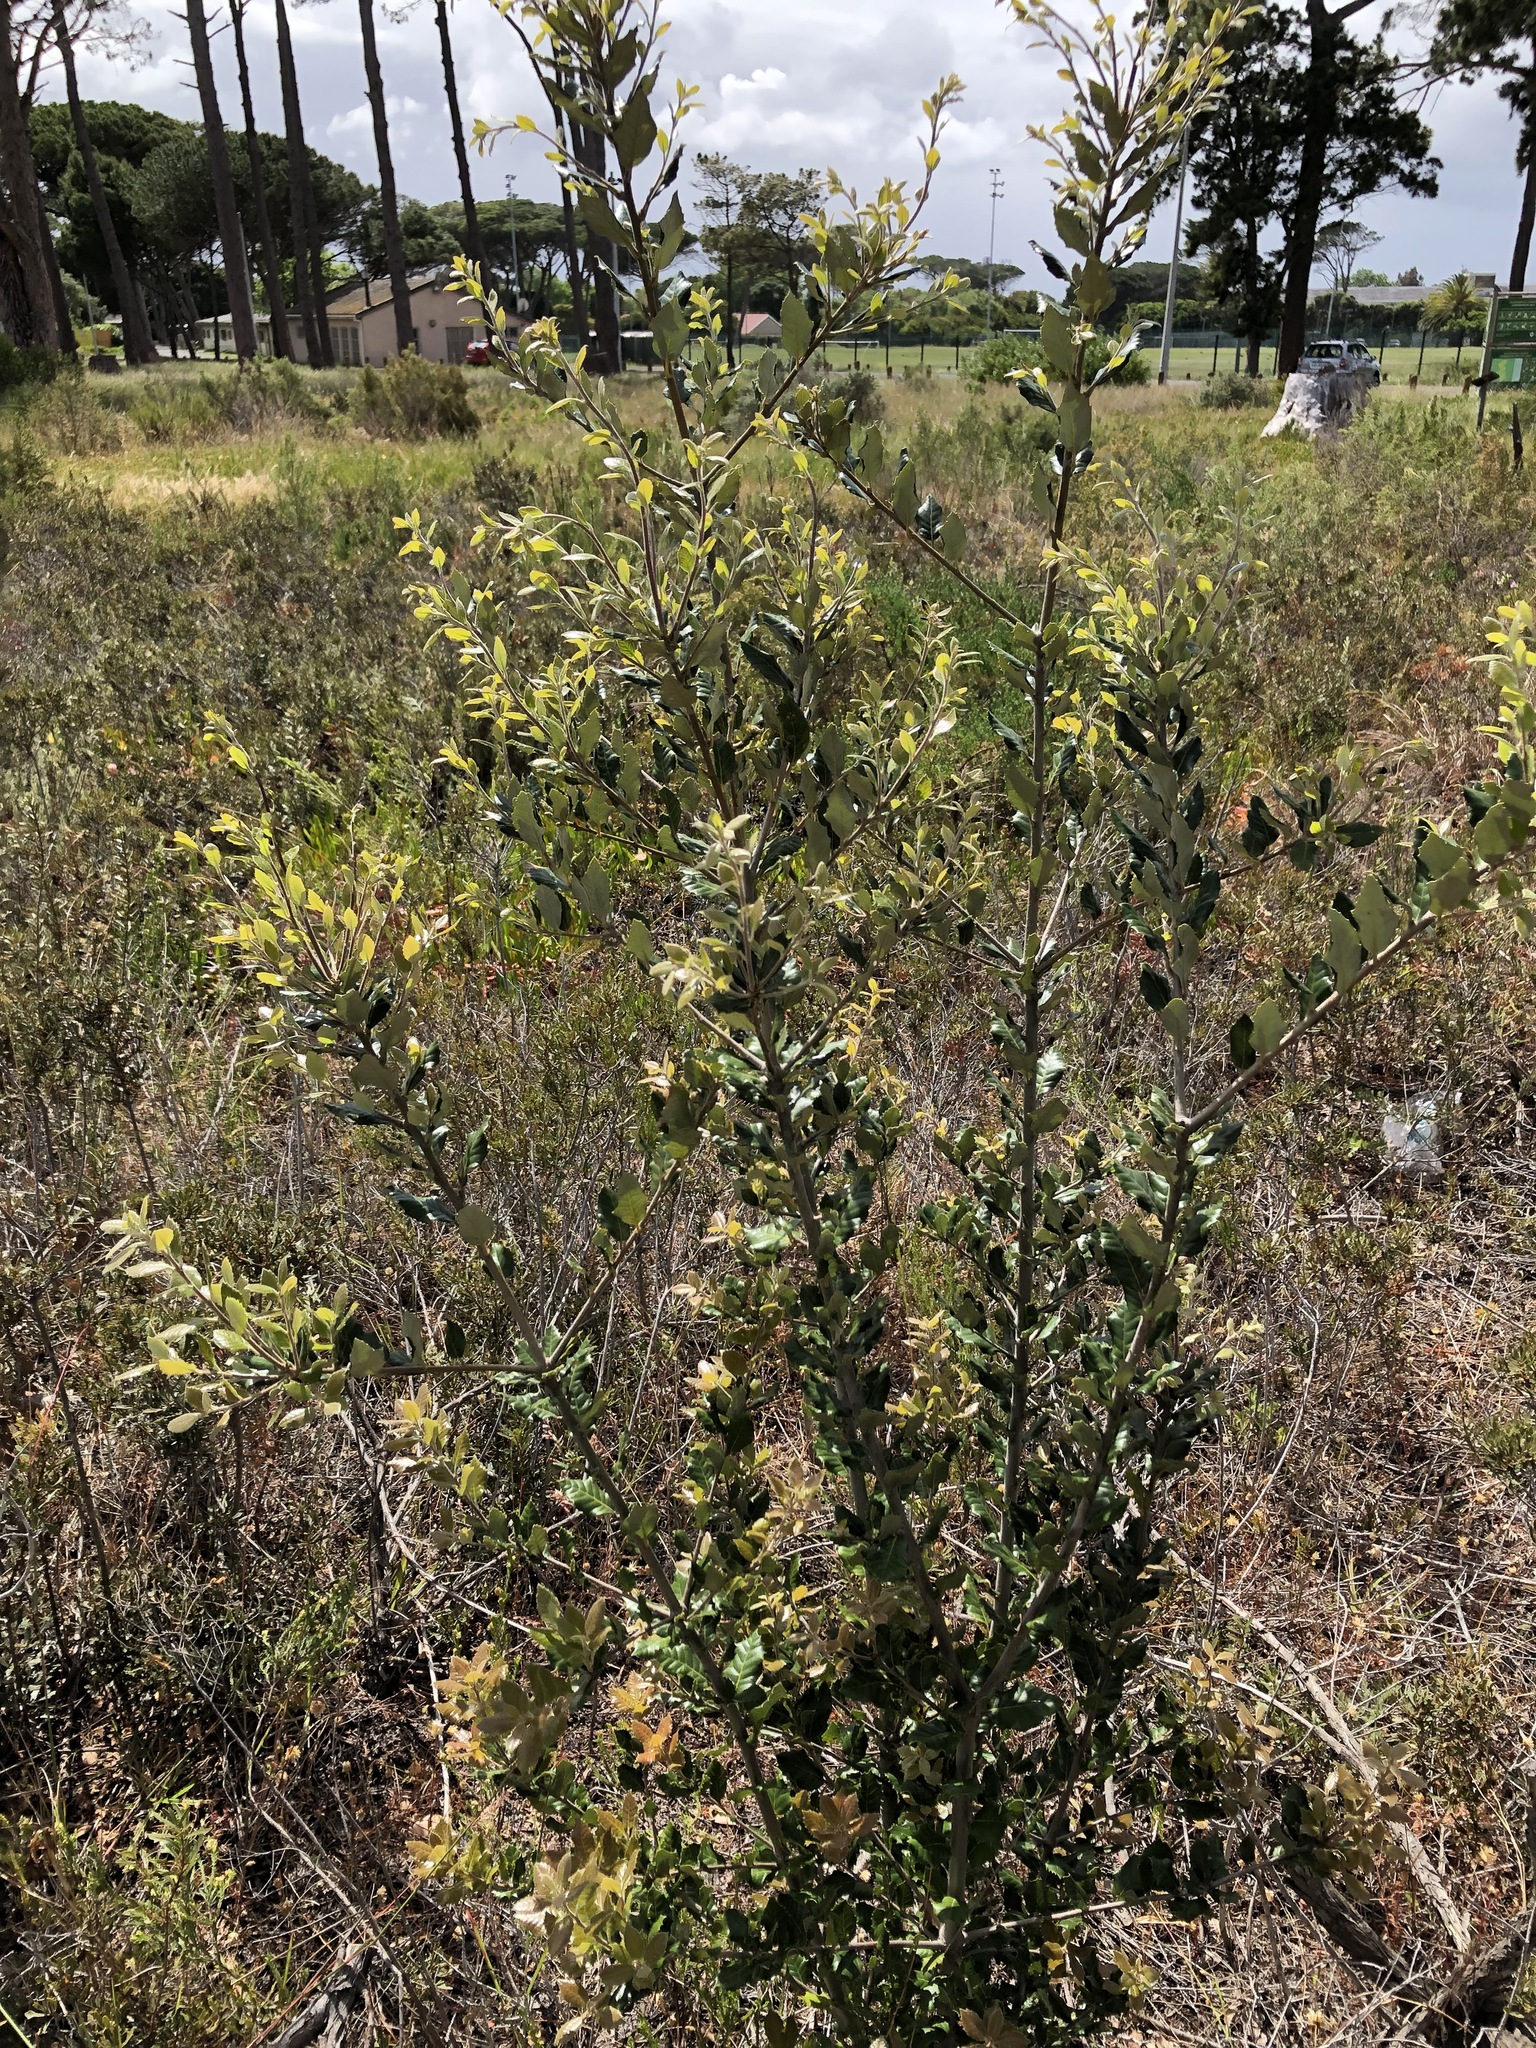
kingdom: Plantae
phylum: Tracheophyta
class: Magnoliopsida
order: Fagales
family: Fagaceae
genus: Quercus
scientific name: Quercus ilex
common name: Evergreen oak
